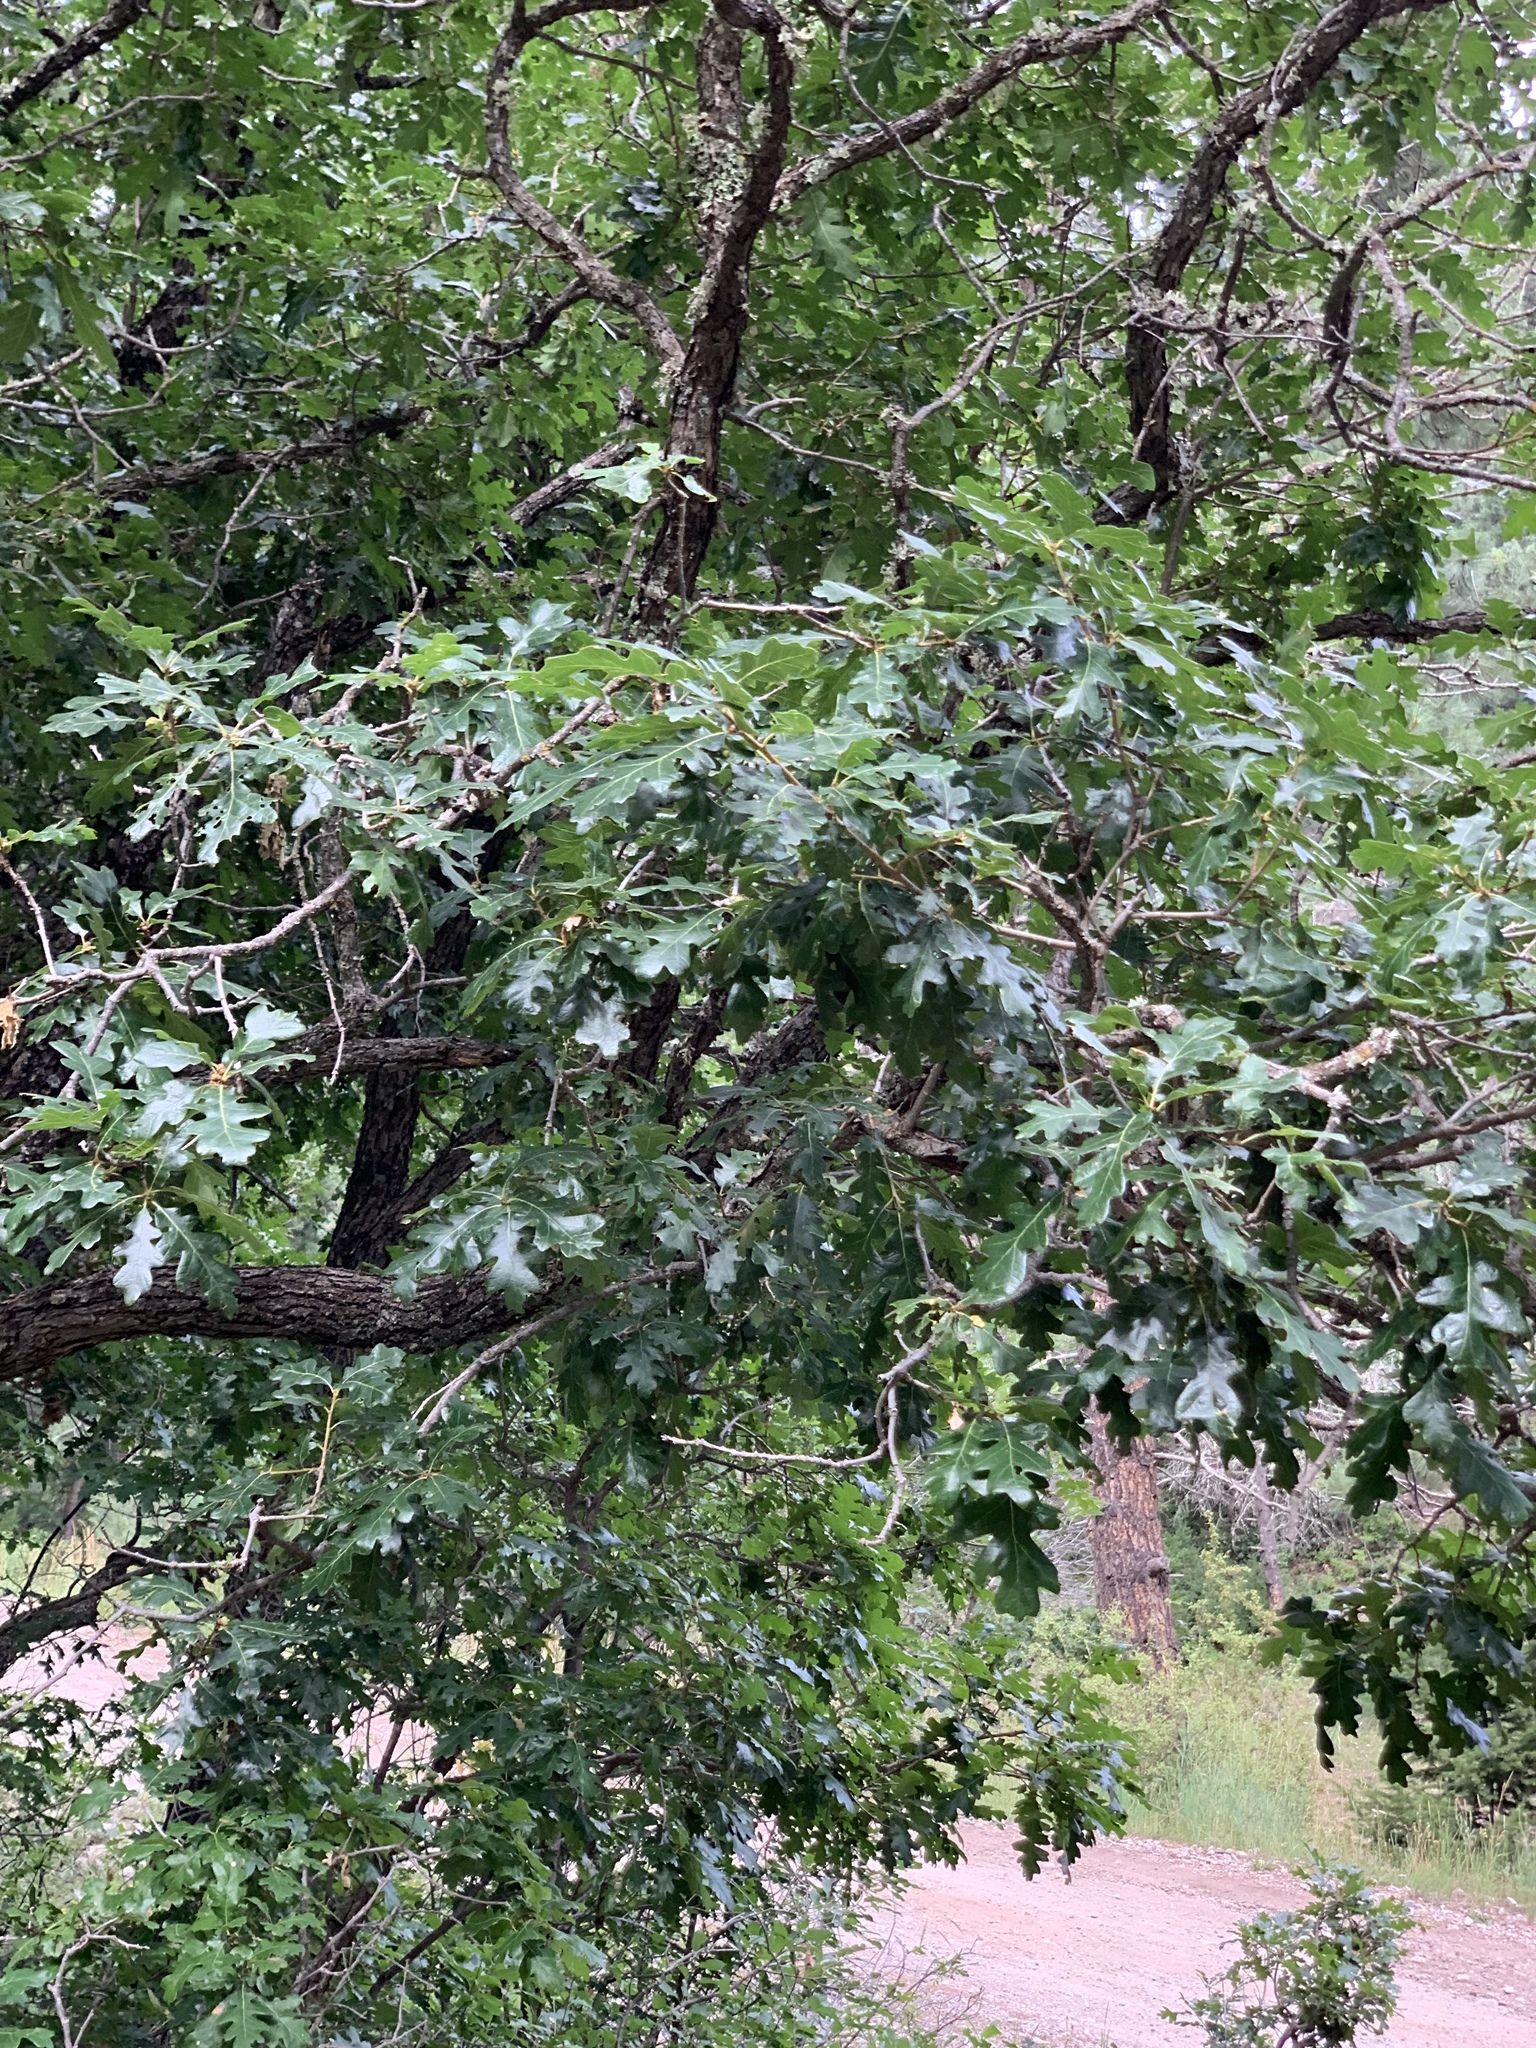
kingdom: Plantae
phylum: Tracheophyta
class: Magnoliopsida
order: Fagales
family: Fagaceae
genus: Quercus
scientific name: Quercus gambelii
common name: Gambel oak
